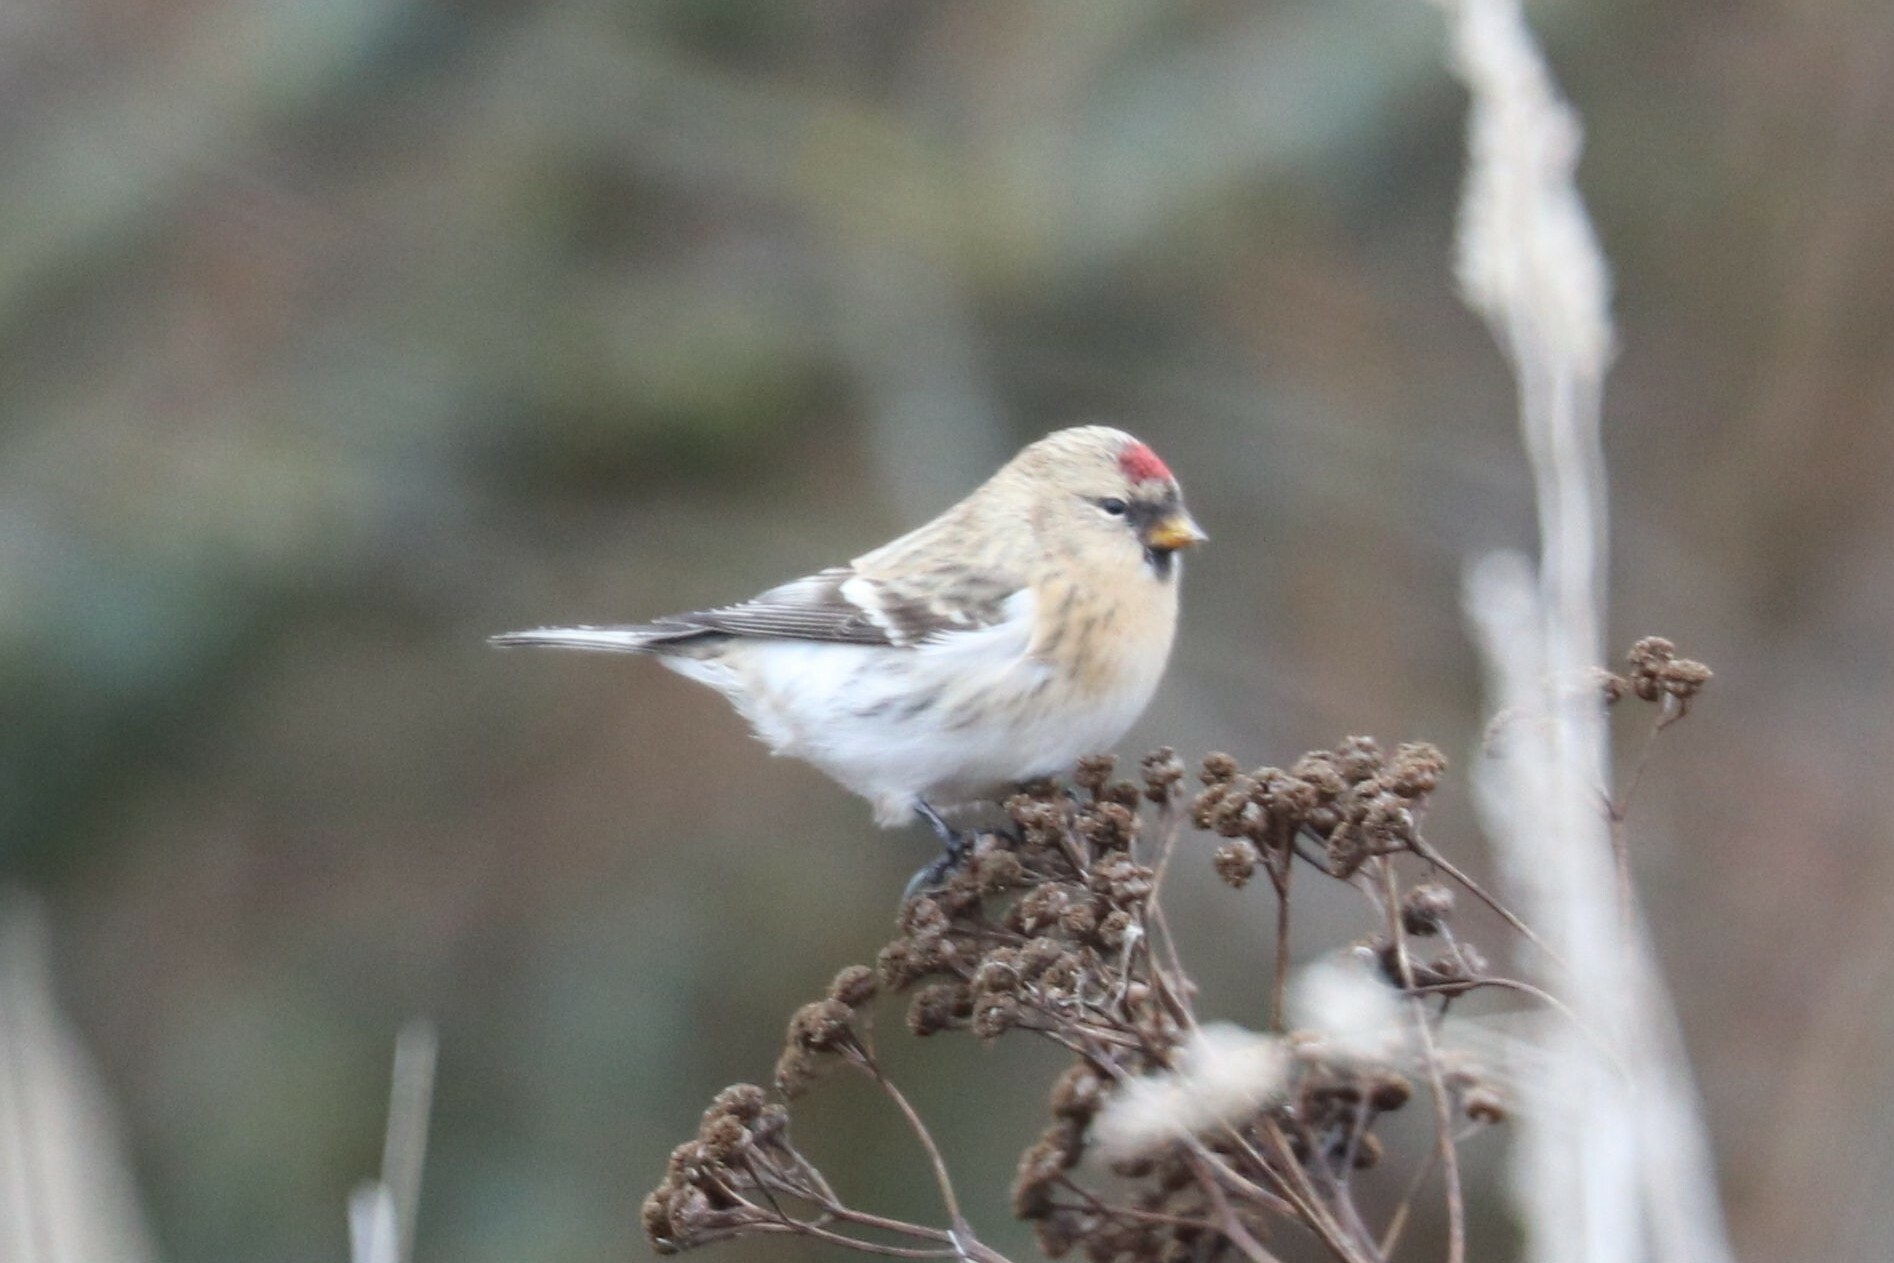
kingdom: Animalia
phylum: Chordata
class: Aves
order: Passeriformes
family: Fringillidae
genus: Acanthis
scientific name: Acanthis flammea
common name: Common redpoll
